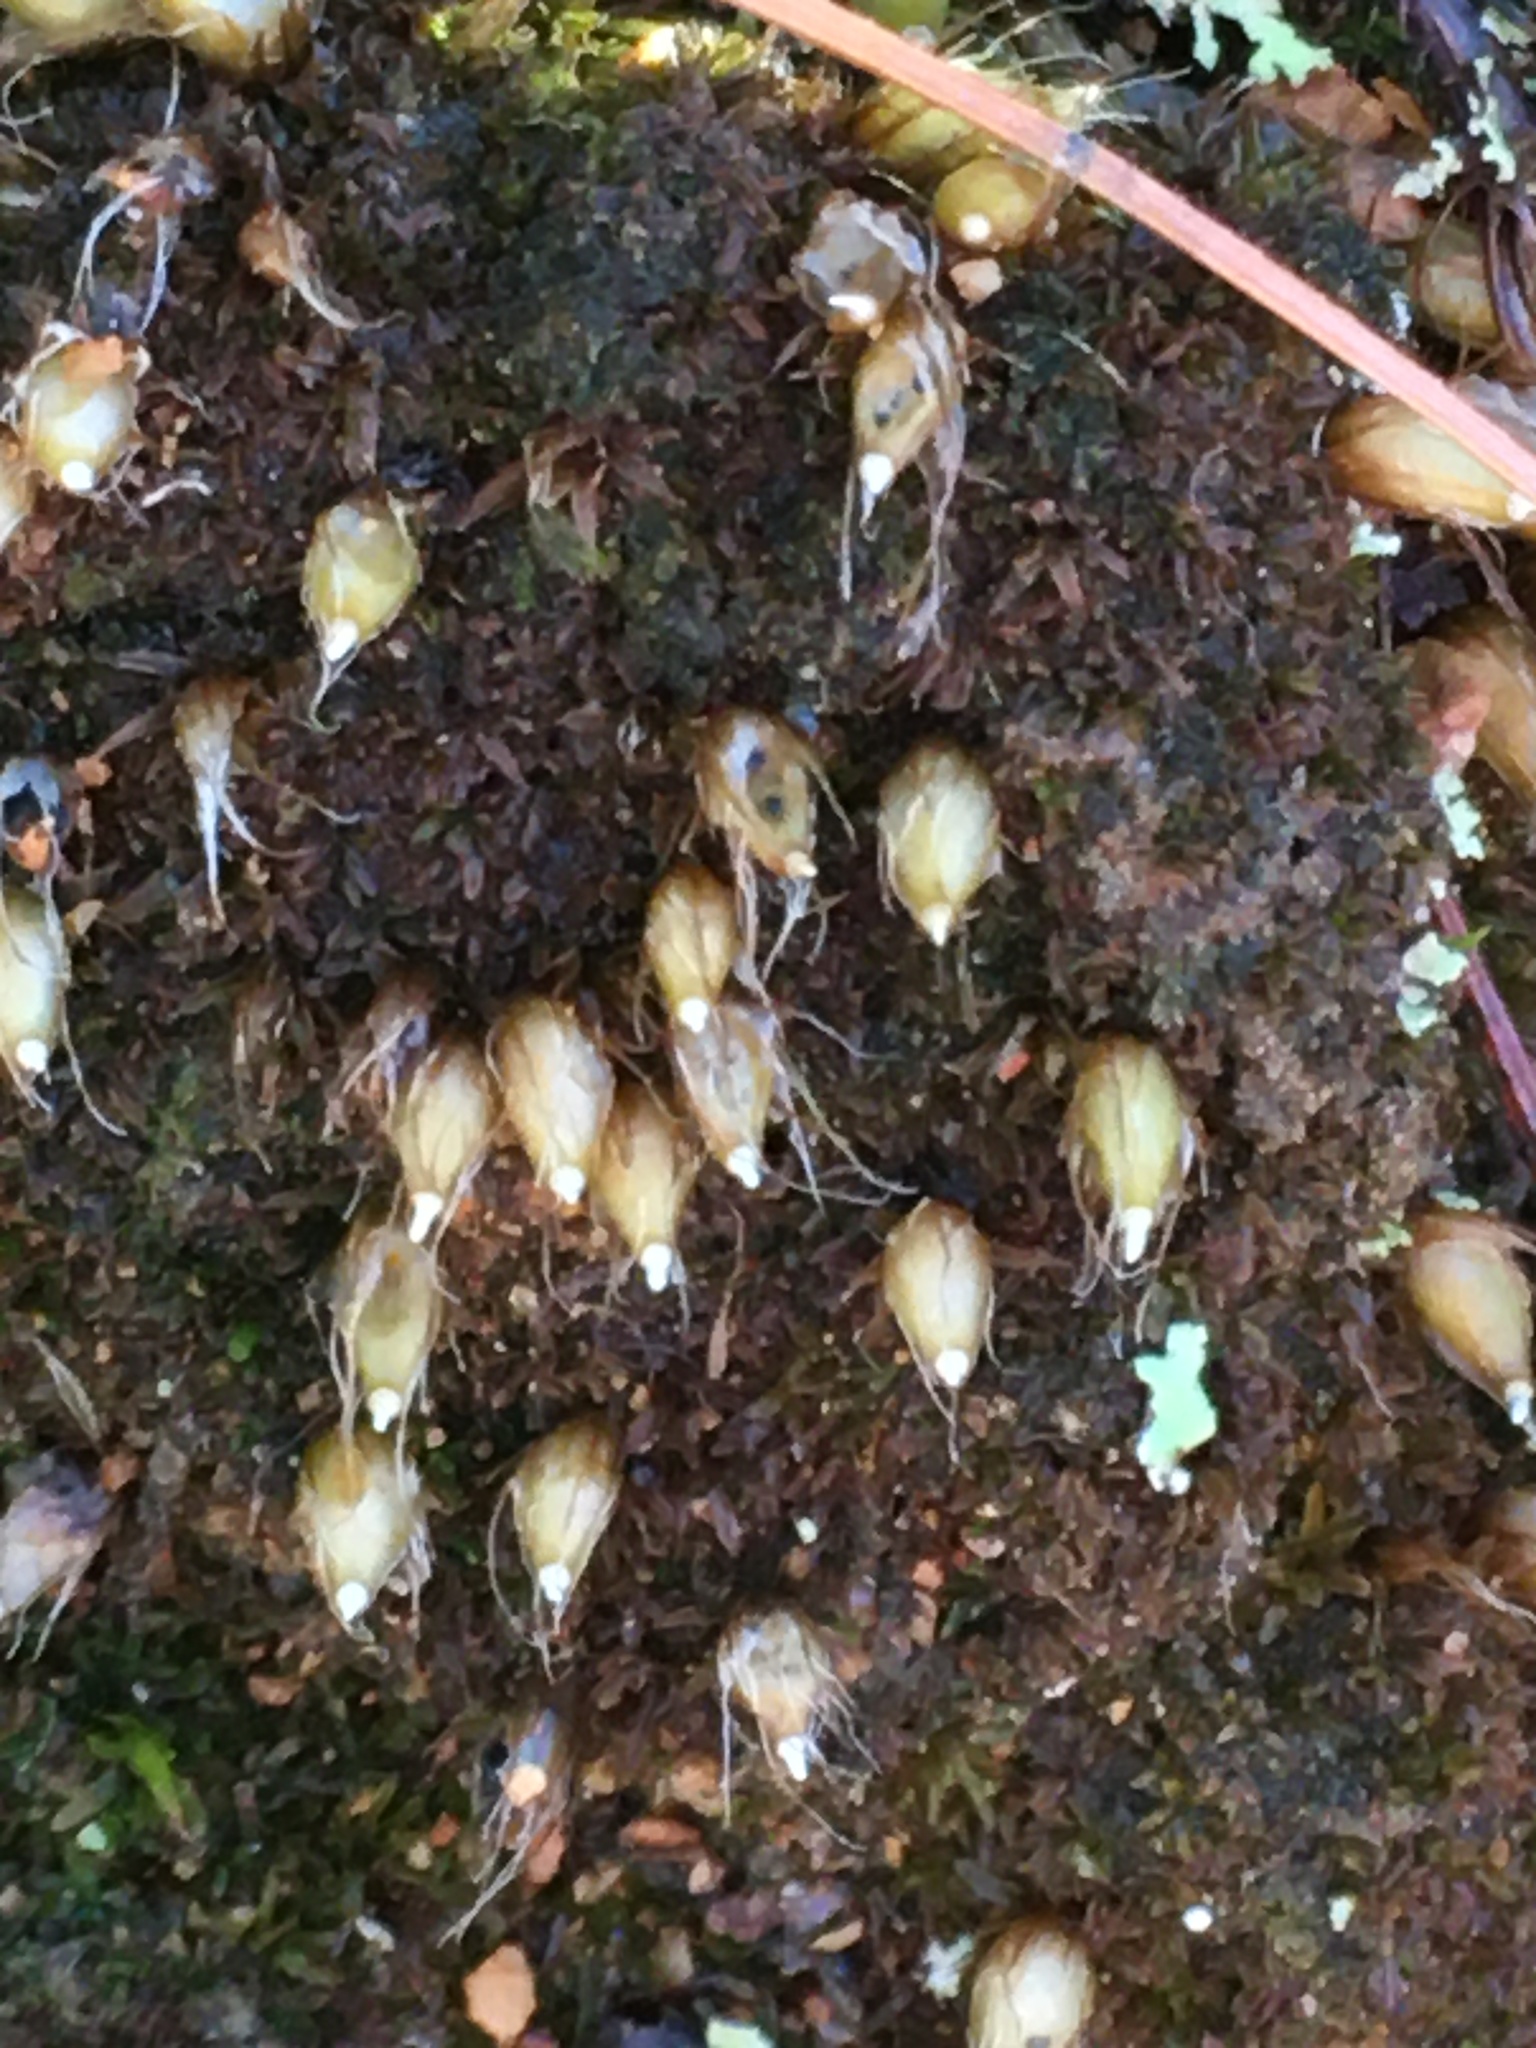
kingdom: Plantae
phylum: Bryophyta
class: Bryopsida
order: Diphysciales
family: Diphysciaceae
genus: Diphyscium
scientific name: Diphyscium foliosum
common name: Nut moss
